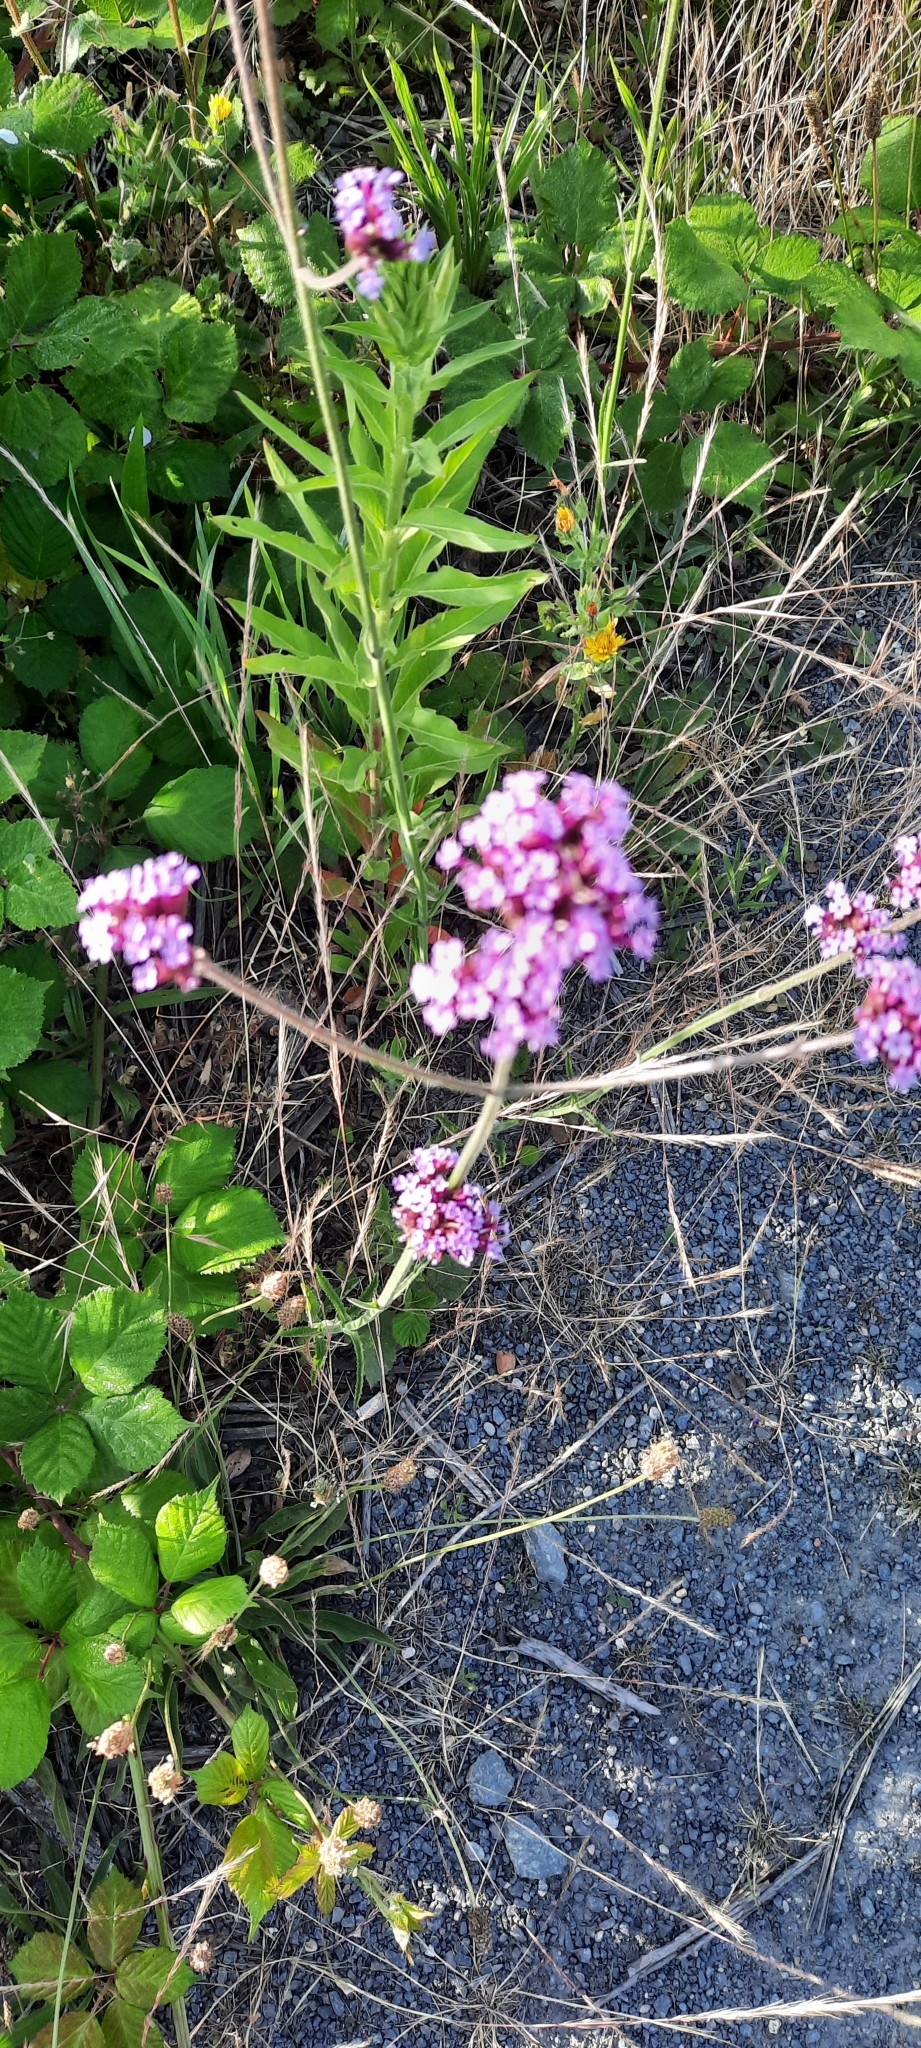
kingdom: Plantae
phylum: Tracheophyta
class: Magnoliopsida
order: Lamiales
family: Verbenaceae
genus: Verbena
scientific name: Verbena bonariensis
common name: Purpletop vervain
